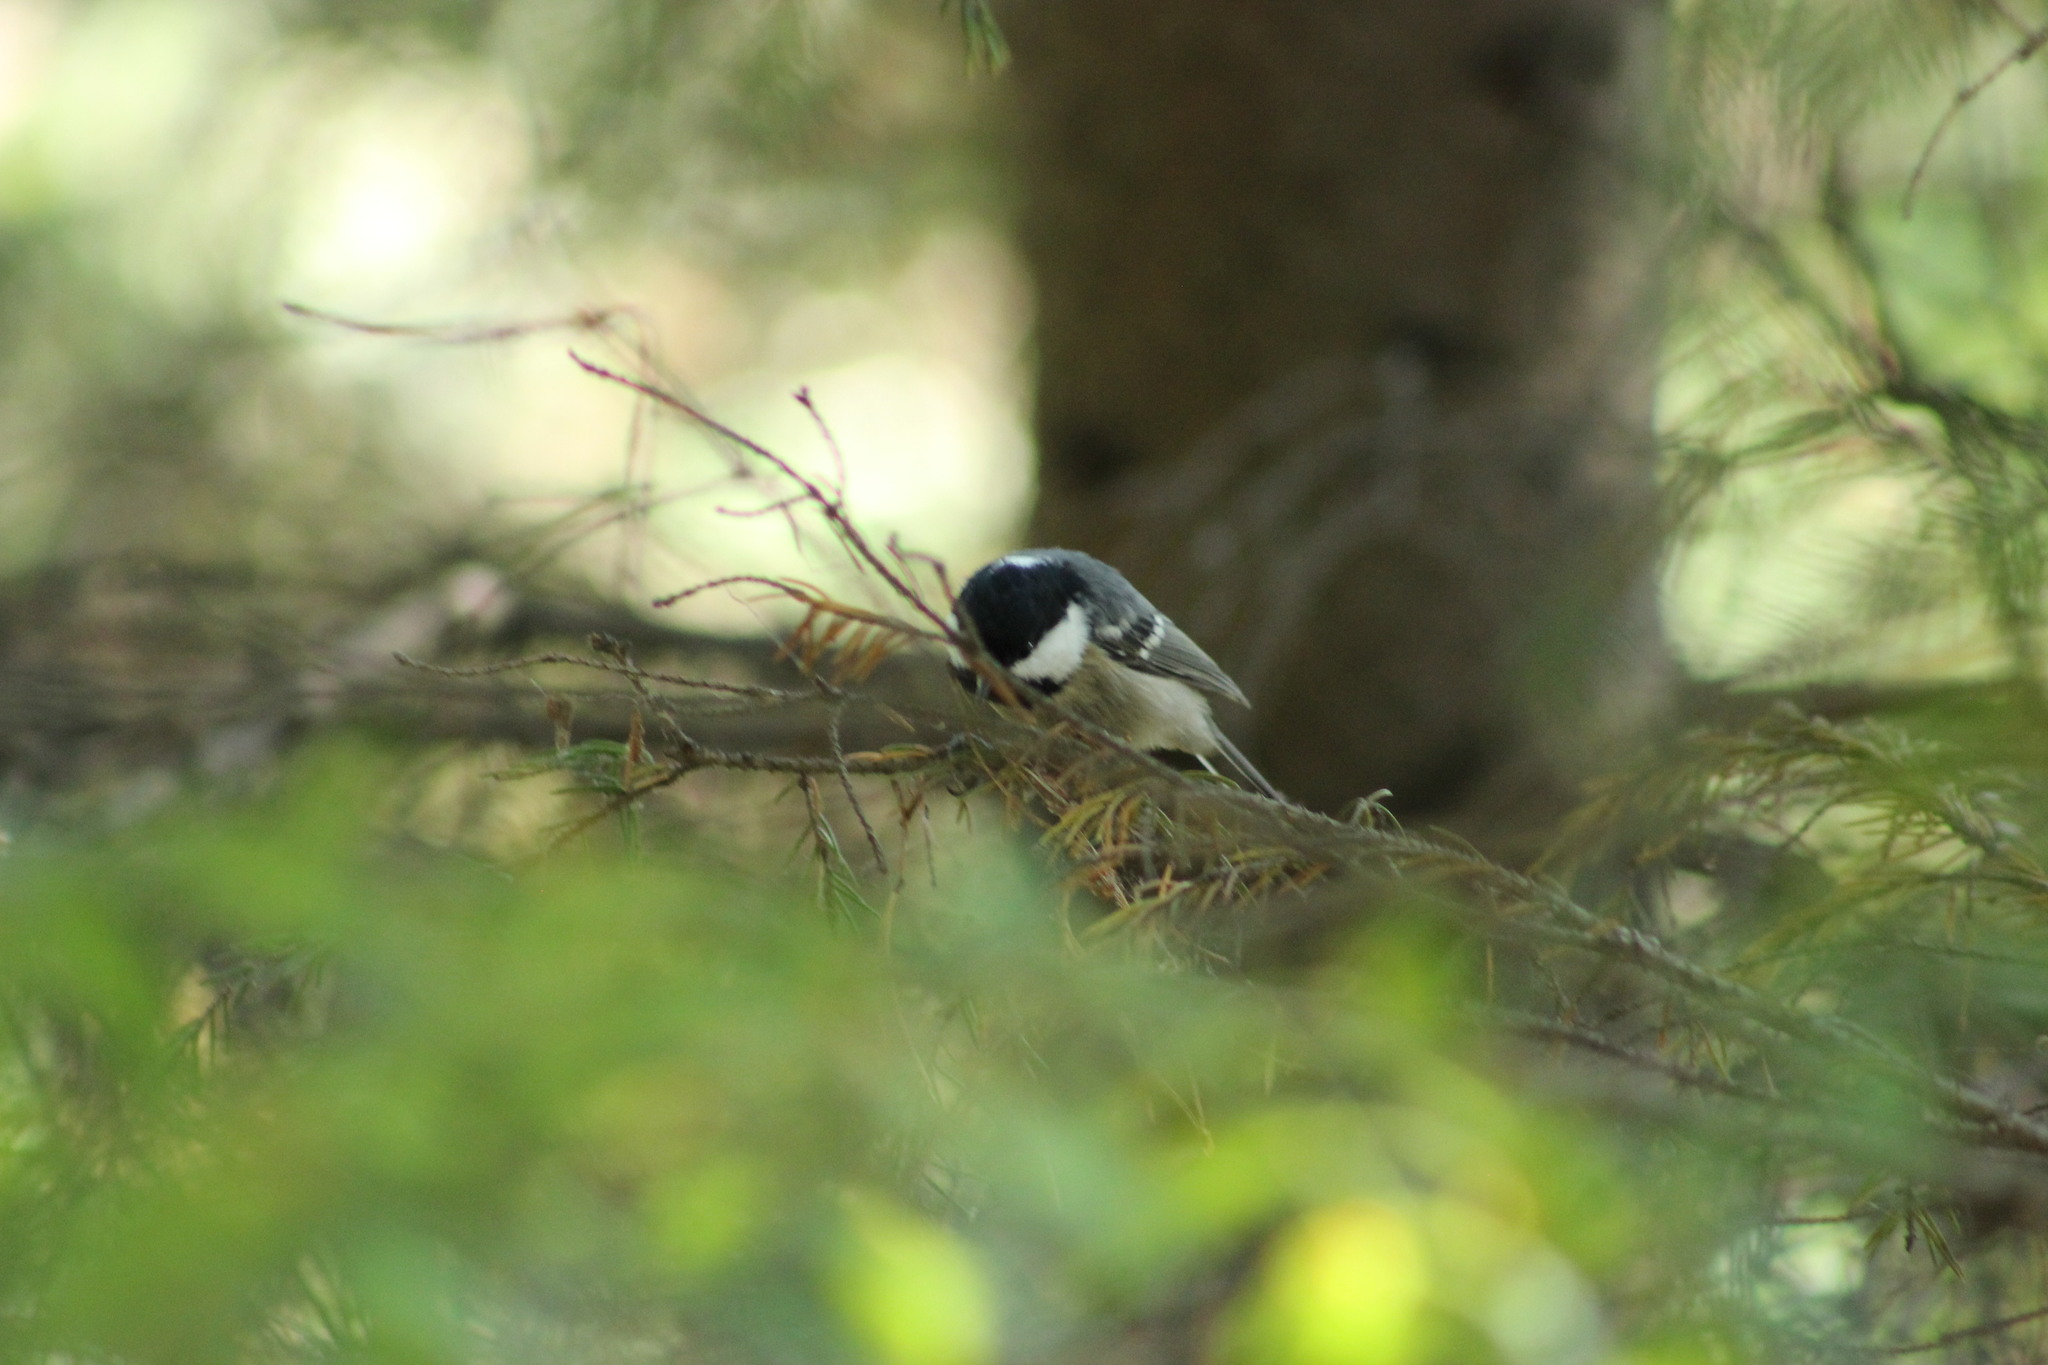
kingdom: Animalia
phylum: Chordata
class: Aves
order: Passeriformes
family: Paridae
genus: Periparus
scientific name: Periparus ater
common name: Coal tit
